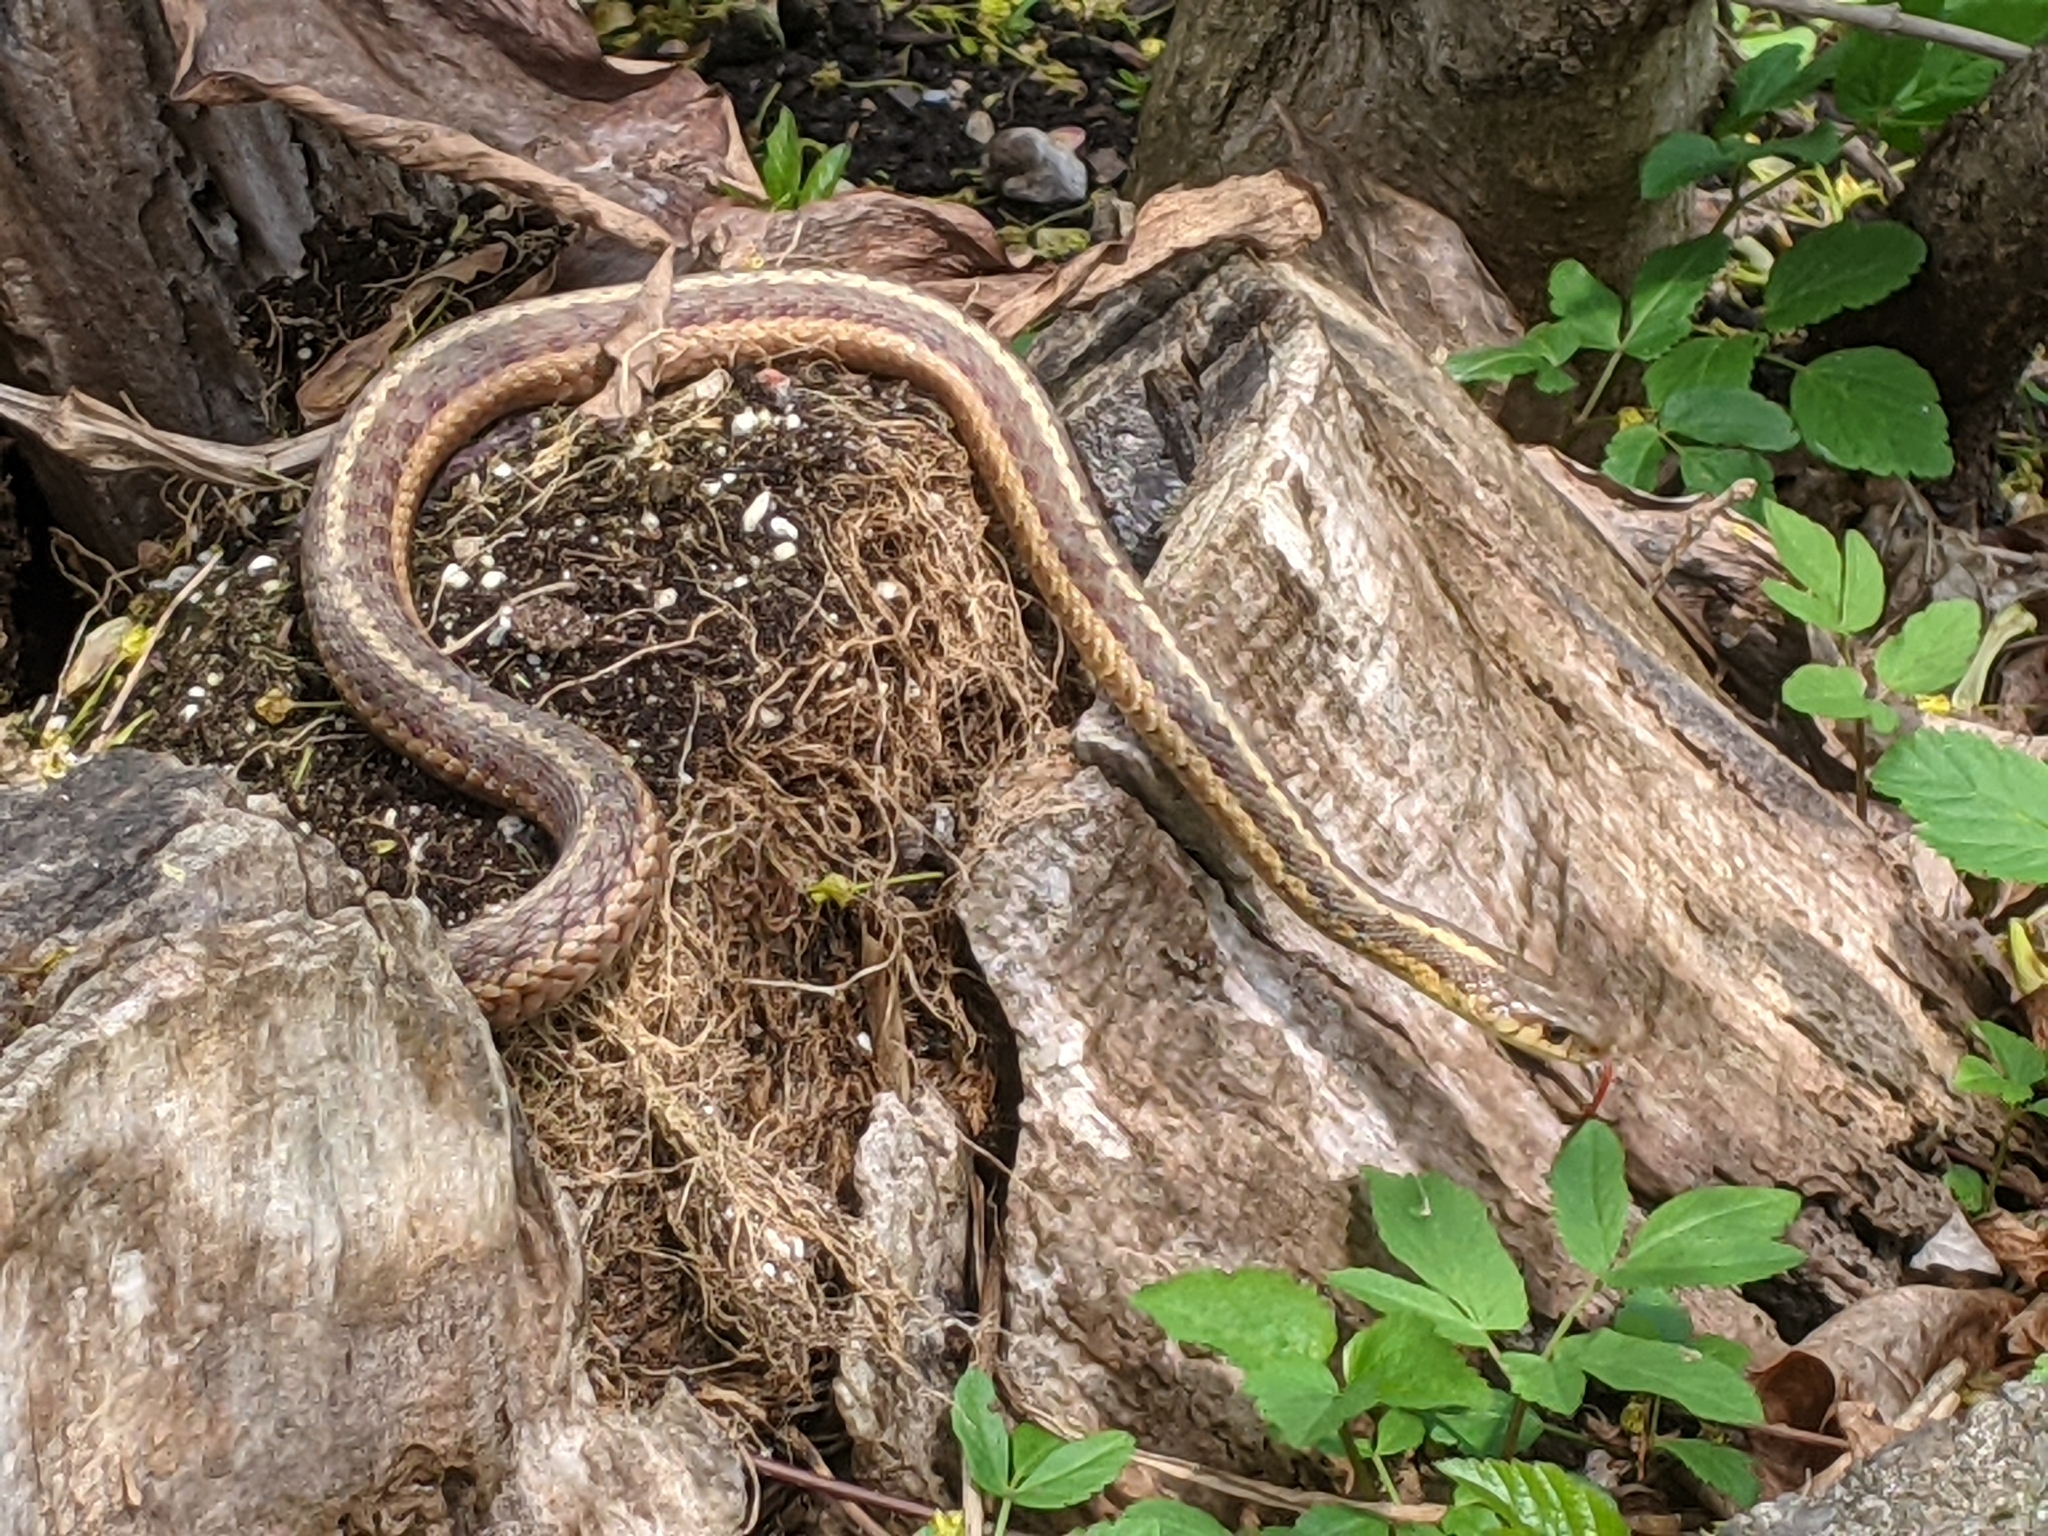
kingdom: Animalia
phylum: Chordata
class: Squamata
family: Colubridae
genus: Thamnophis
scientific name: Thamnophis sirtalis
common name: Common garter snake
